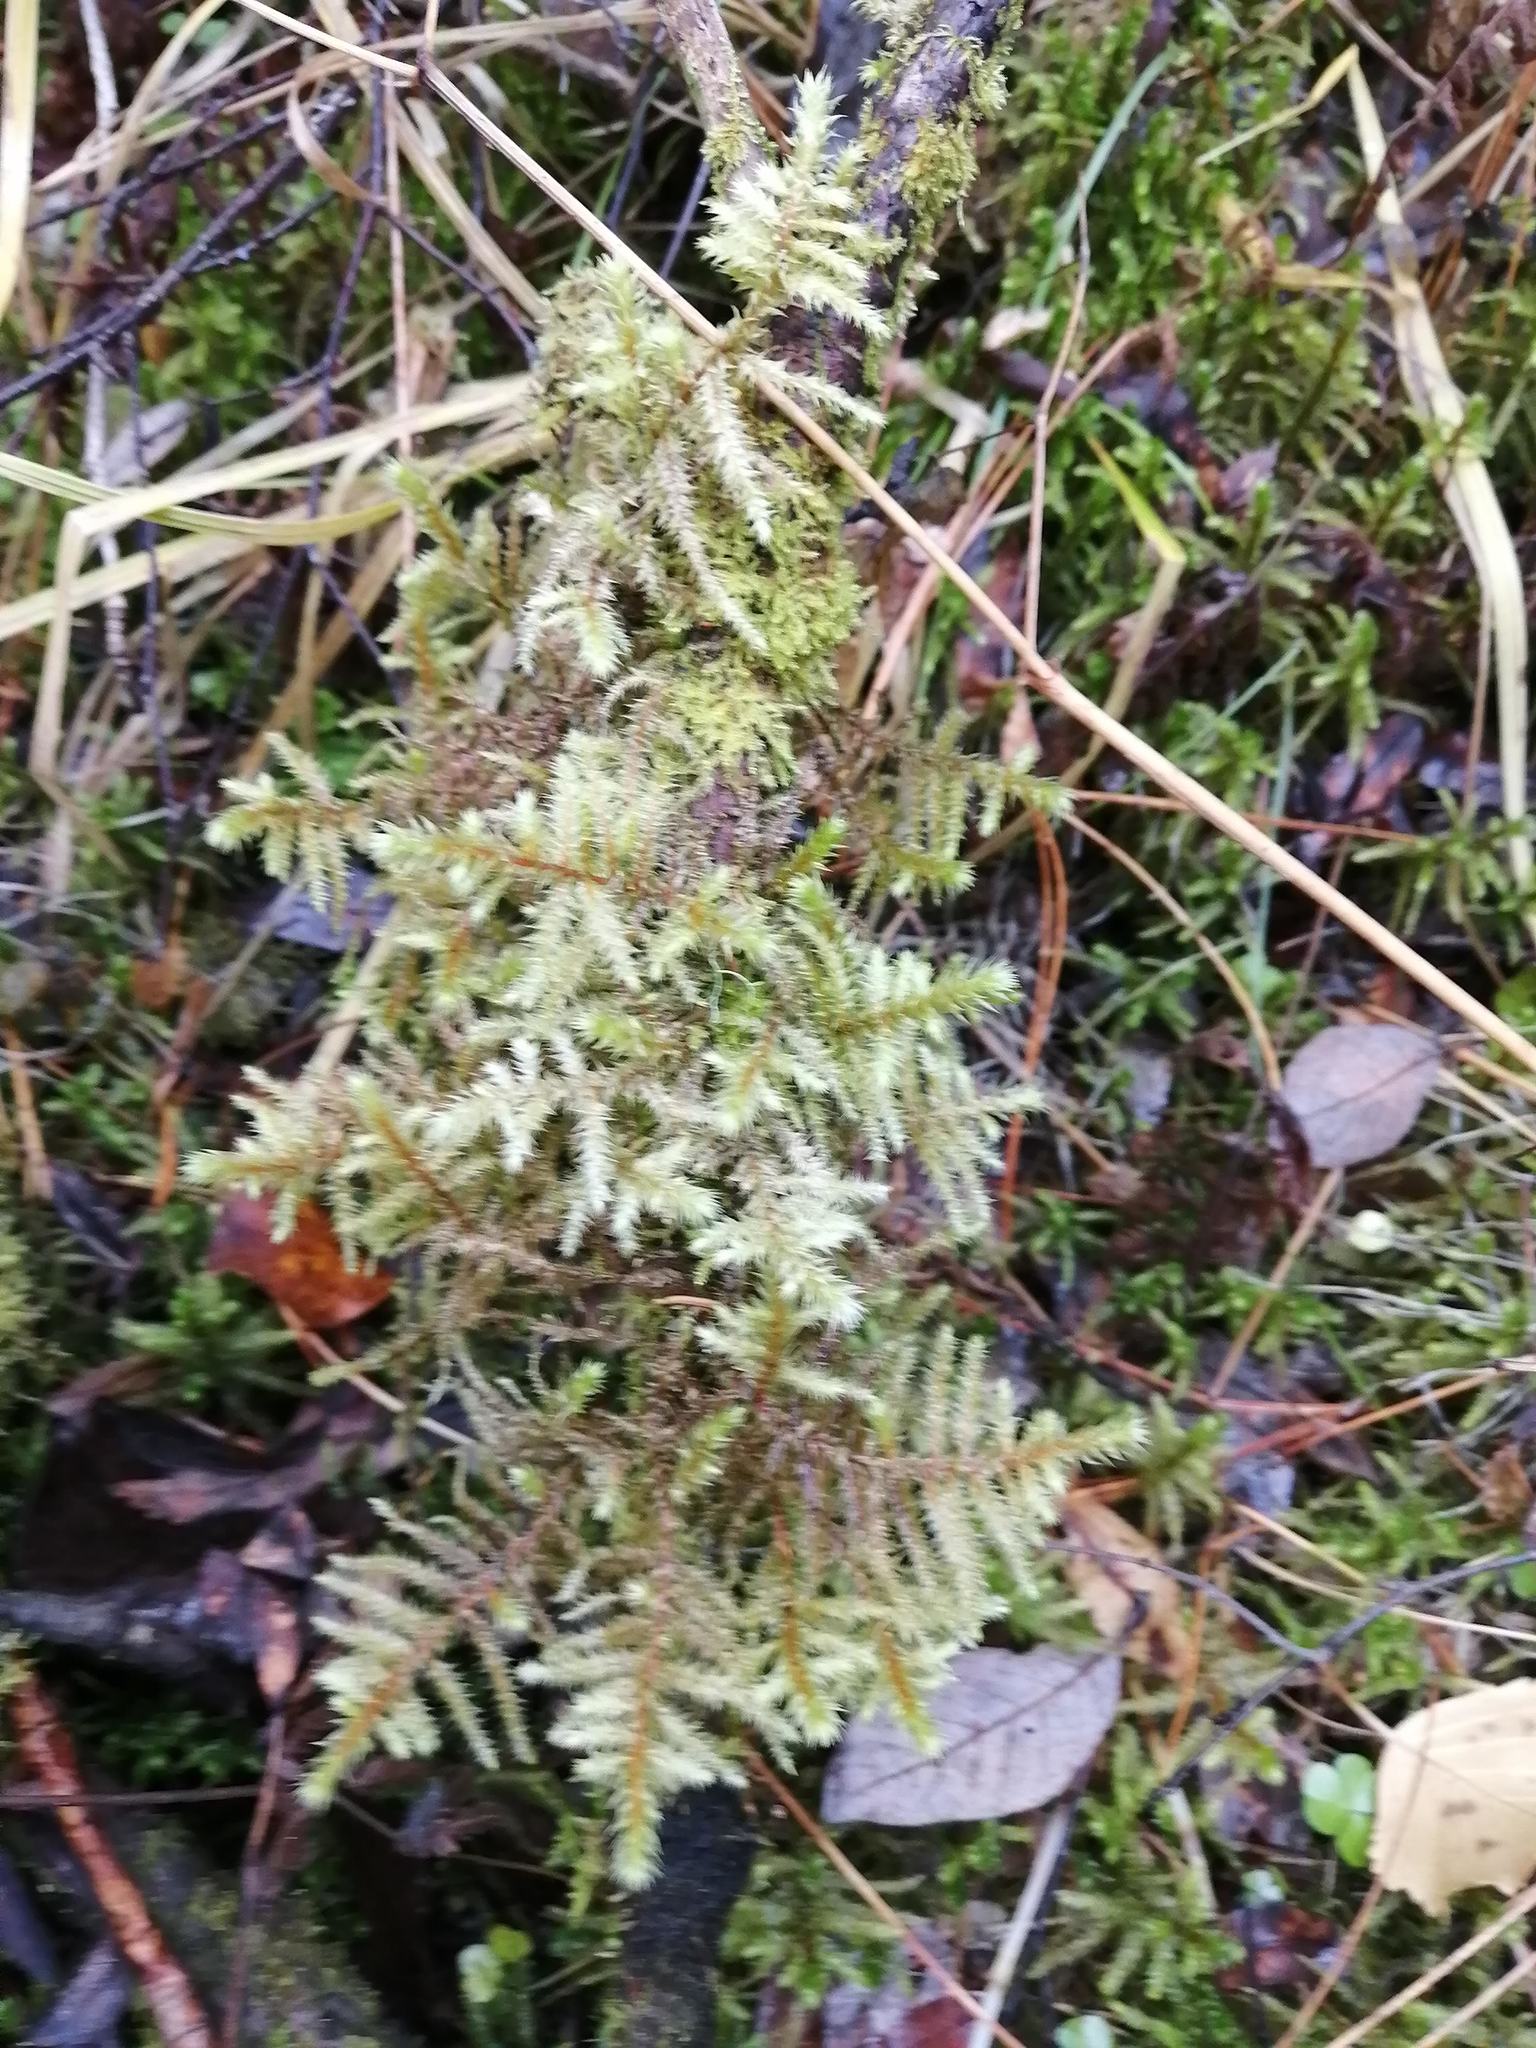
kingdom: Plantae
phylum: Bryophyta
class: Bryopsida
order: Hypnales
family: Hylocomiaceae
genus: Hylocomiadelphus
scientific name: Hylocomiadelphus triquetrus
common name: Rough goose neck moss
